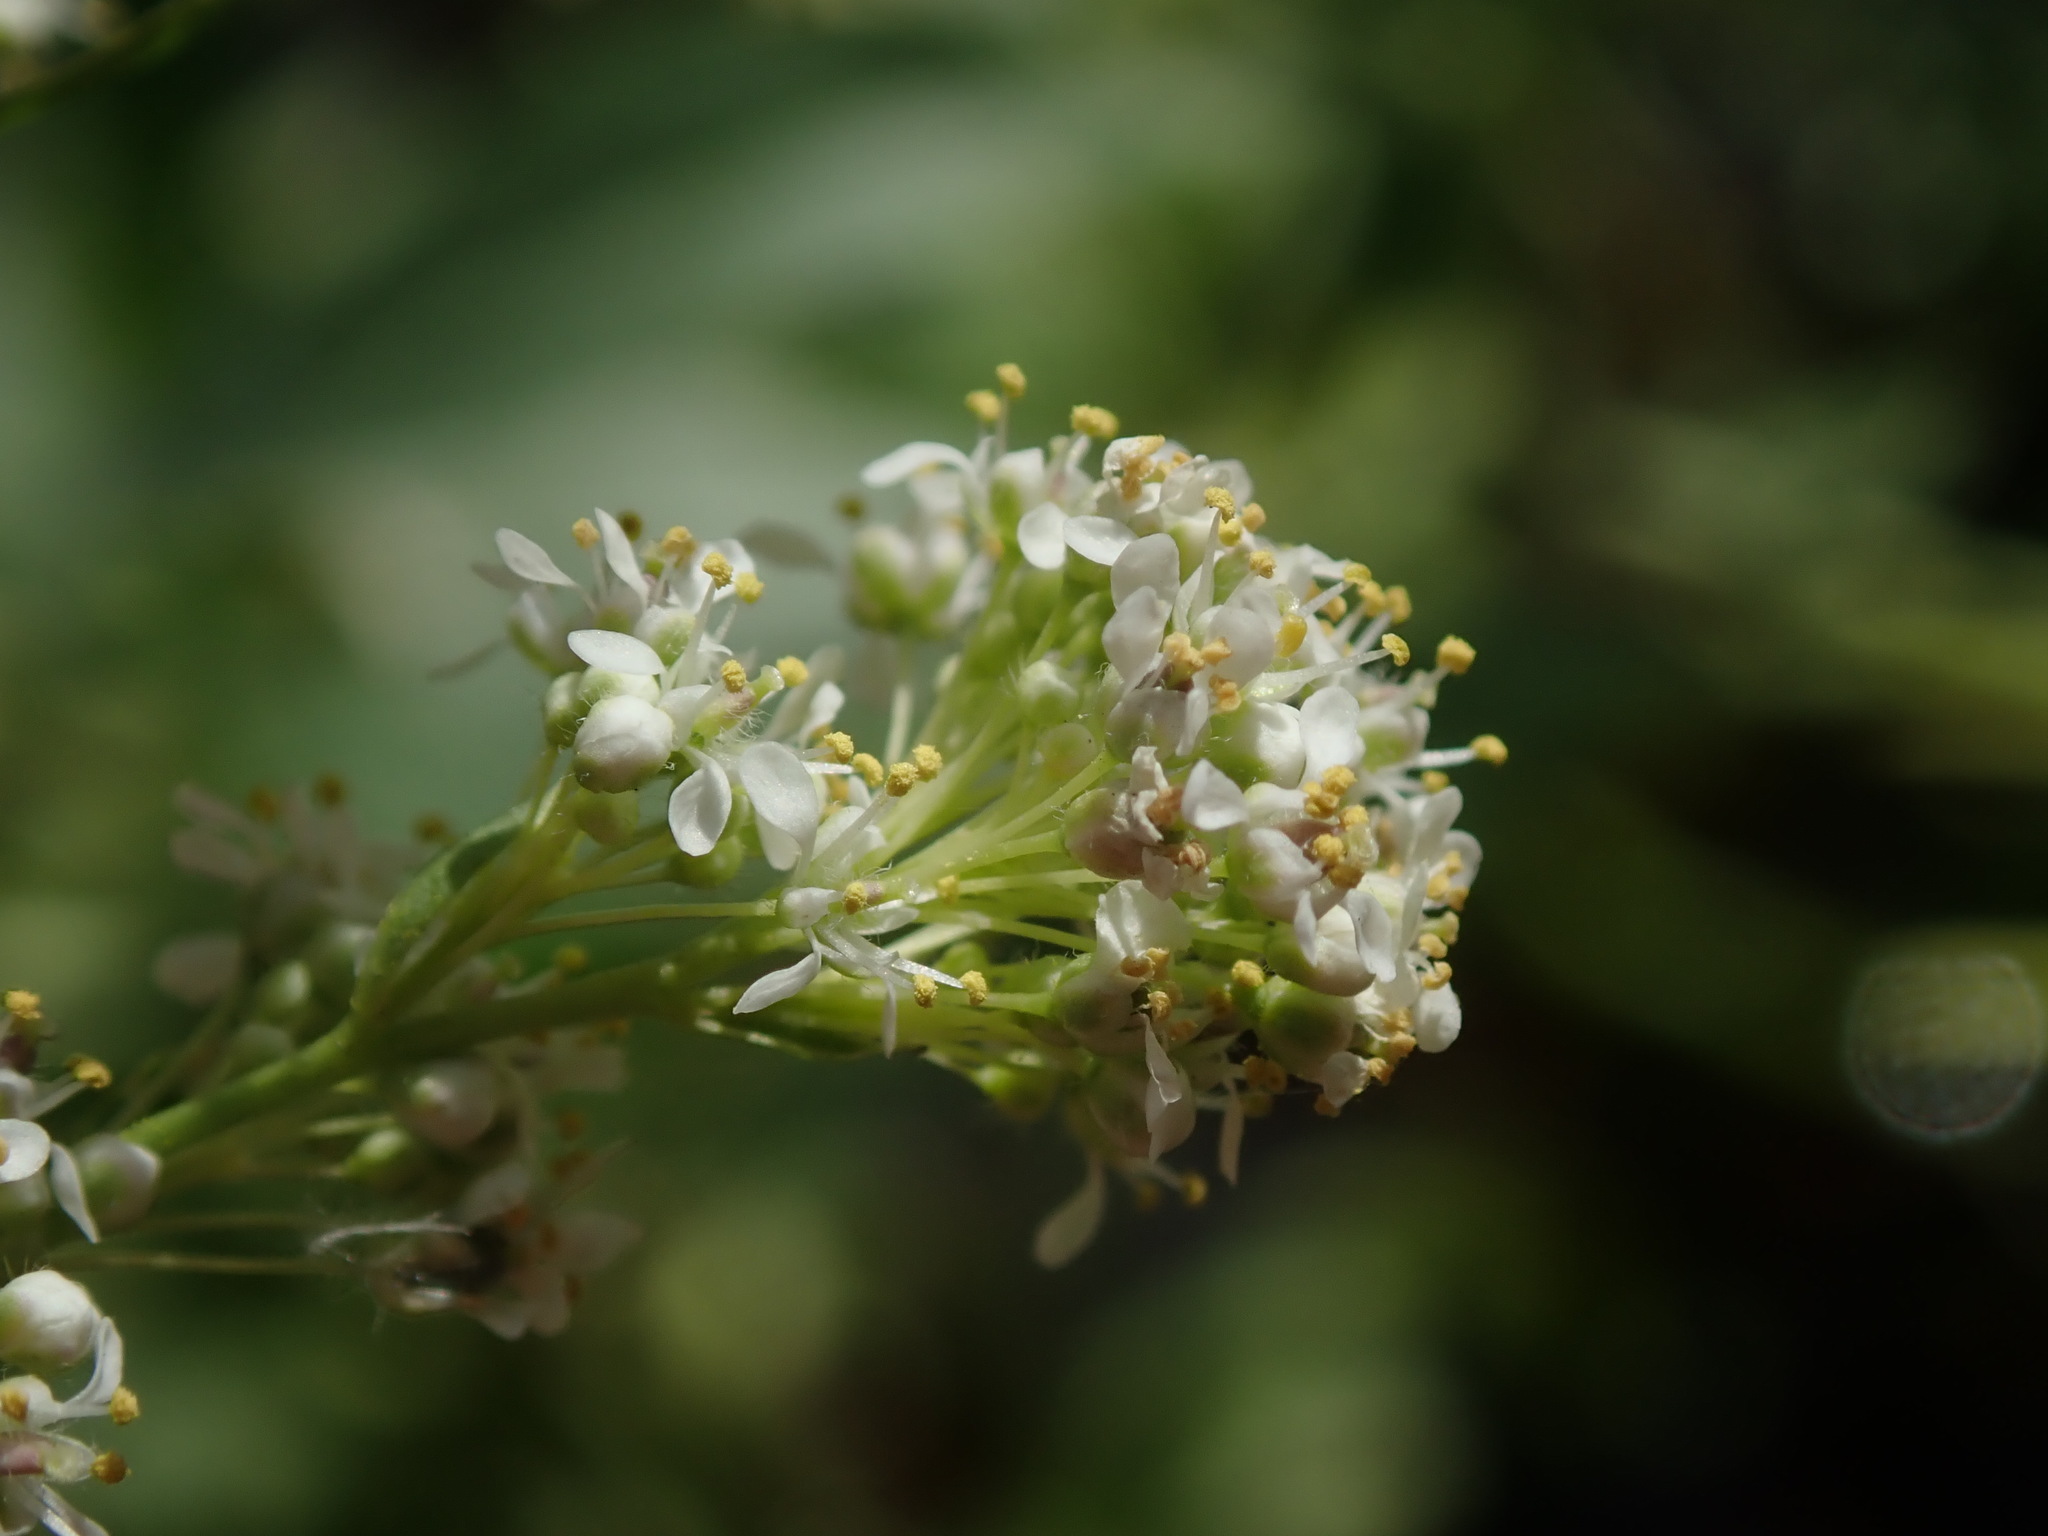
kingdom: Plantae
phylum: Tracheophyta
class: Magnoliopsida
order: Brassicales
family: Brassicaceae
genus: Lepidium
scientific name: Lepidium latifolium
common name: Dittander
